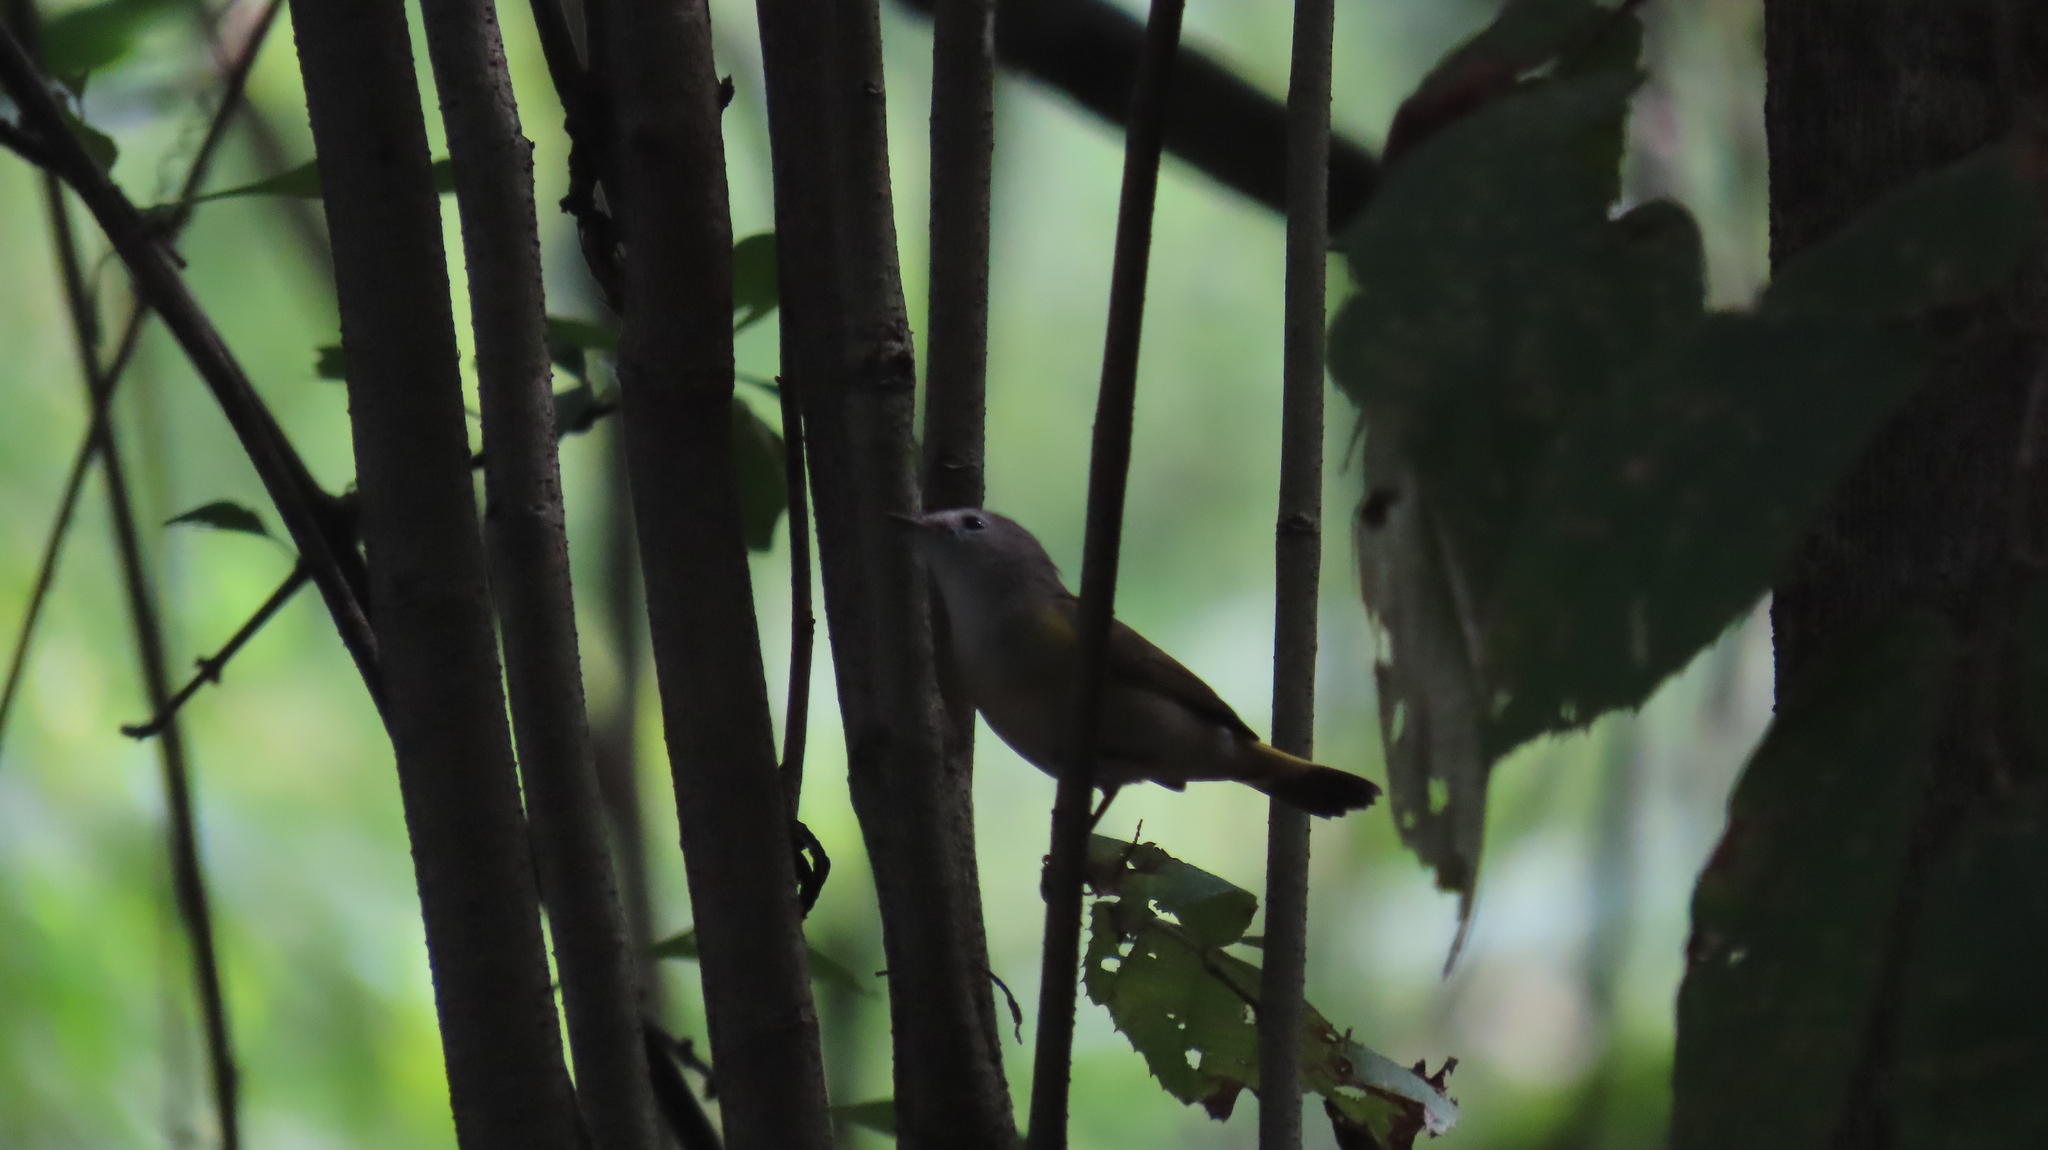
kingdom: Animalia
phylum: Chordata
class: Aves
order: Passeriformes
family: Parulidae
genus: Setophaga
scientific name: Setophaga ruticilla
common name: American redstart
